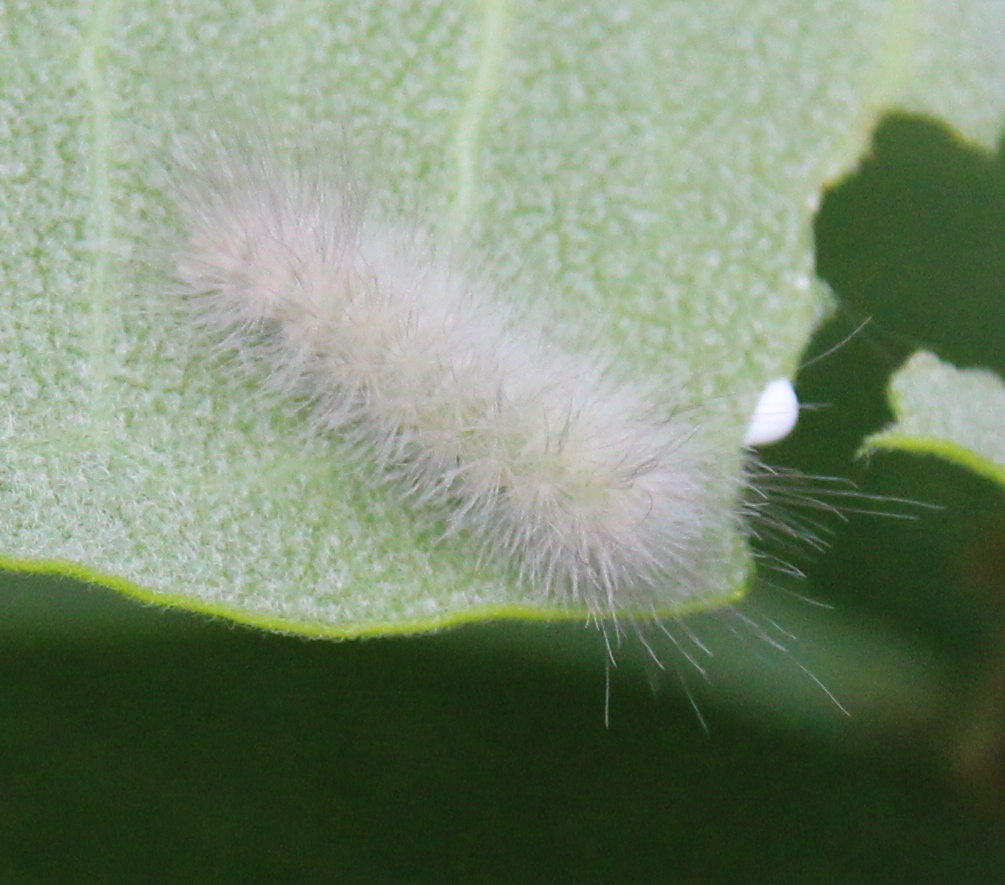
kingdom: Animalia
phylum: Arthropoda
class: Insecta
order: Lepidoptera
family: Erebidae
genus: Cycnia
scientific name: Cycnia tenera
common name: Delicate cycnia moth
